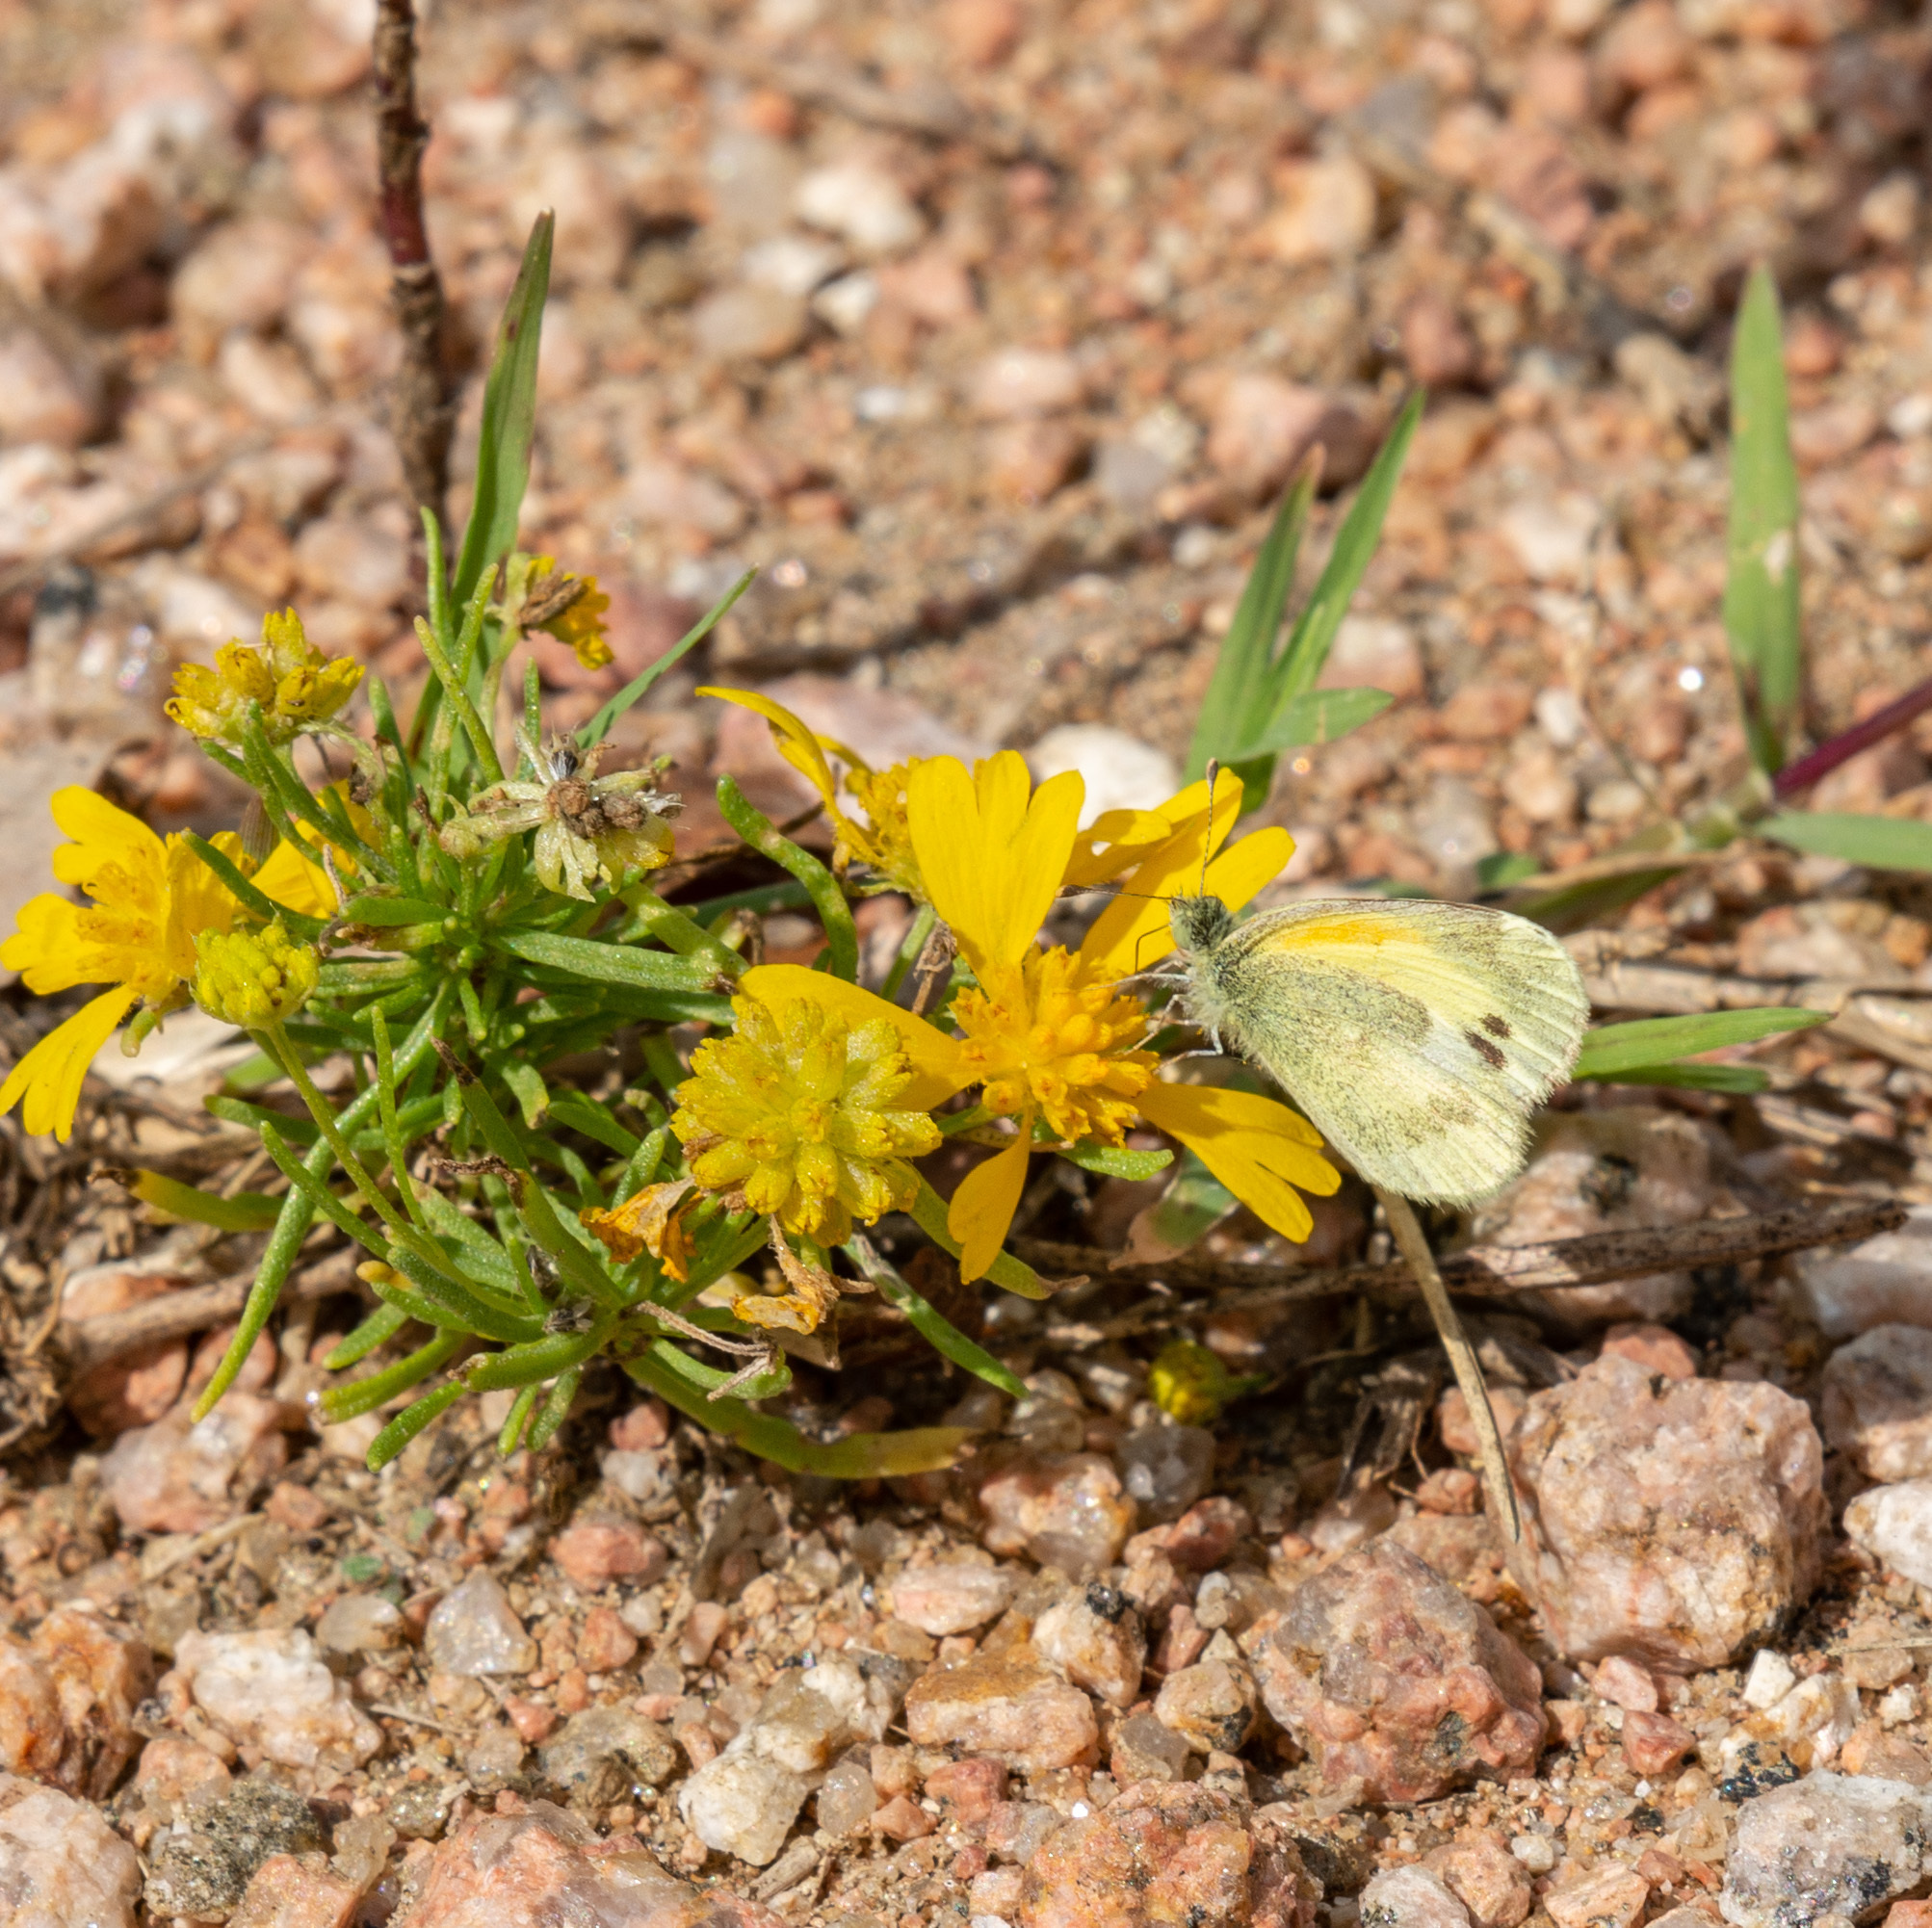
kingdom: Animalia
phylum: Arthropoda
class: Insecta
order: Lepidoptera
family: Pieridae
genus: Nathalis
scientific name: Nathalis iole
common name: Dainty sulphur
